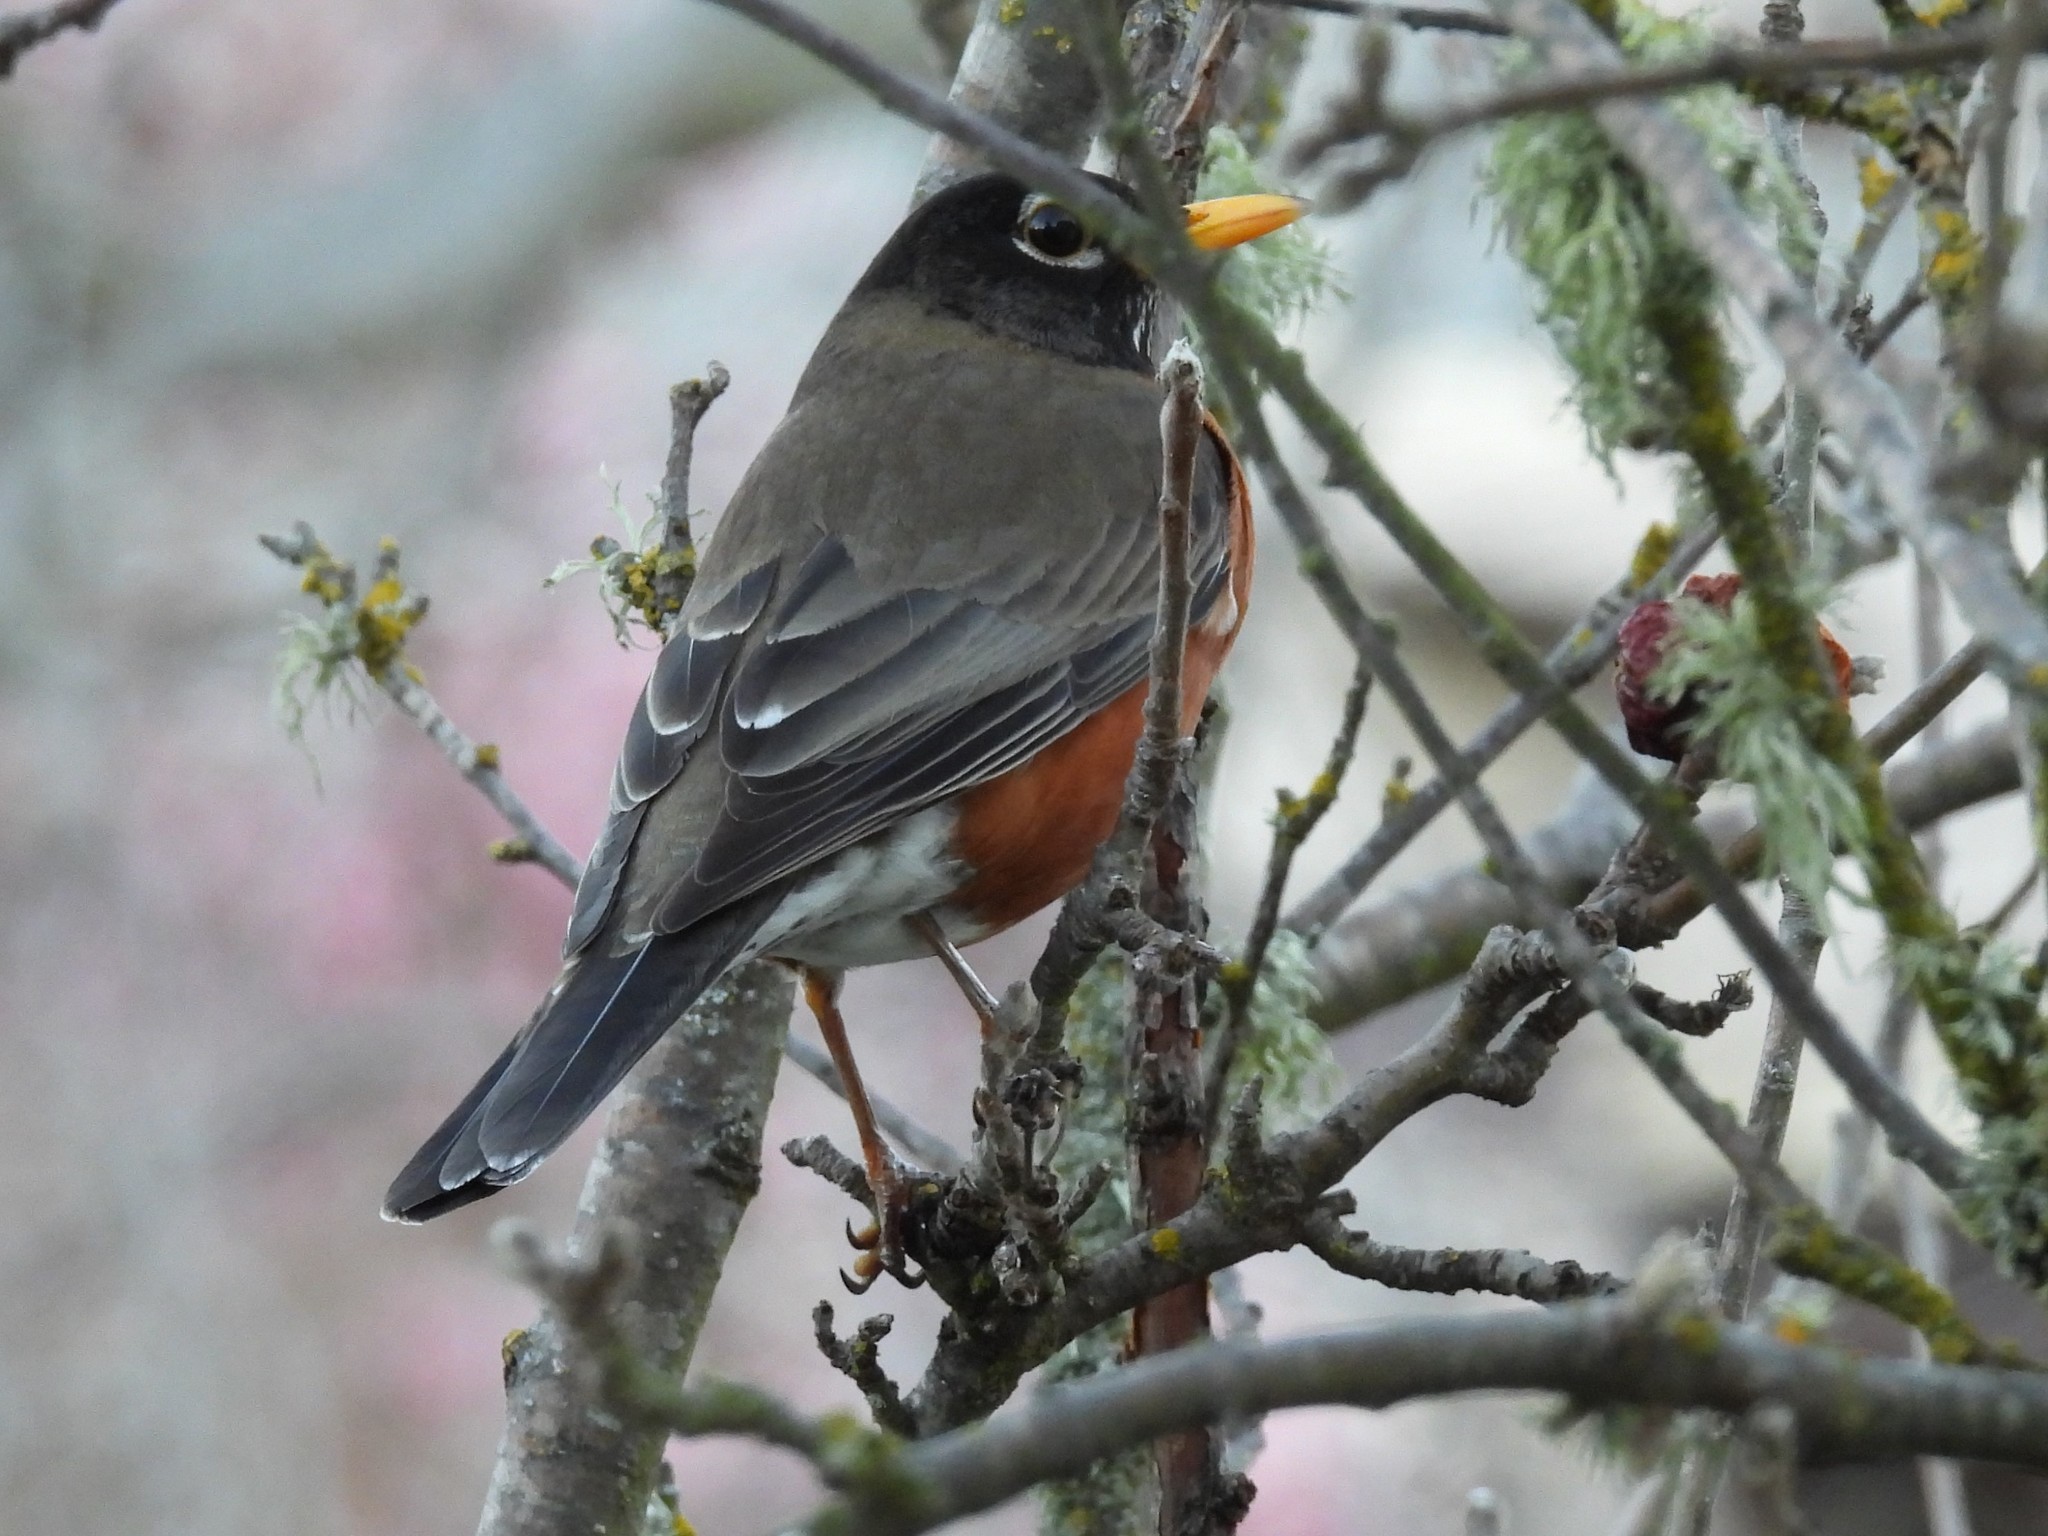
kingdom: Animalia
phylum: Chordata
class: Aves
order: Passeriformes
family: Turdidae
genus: Turdus
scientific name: Turdus migratorius
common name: American robin
